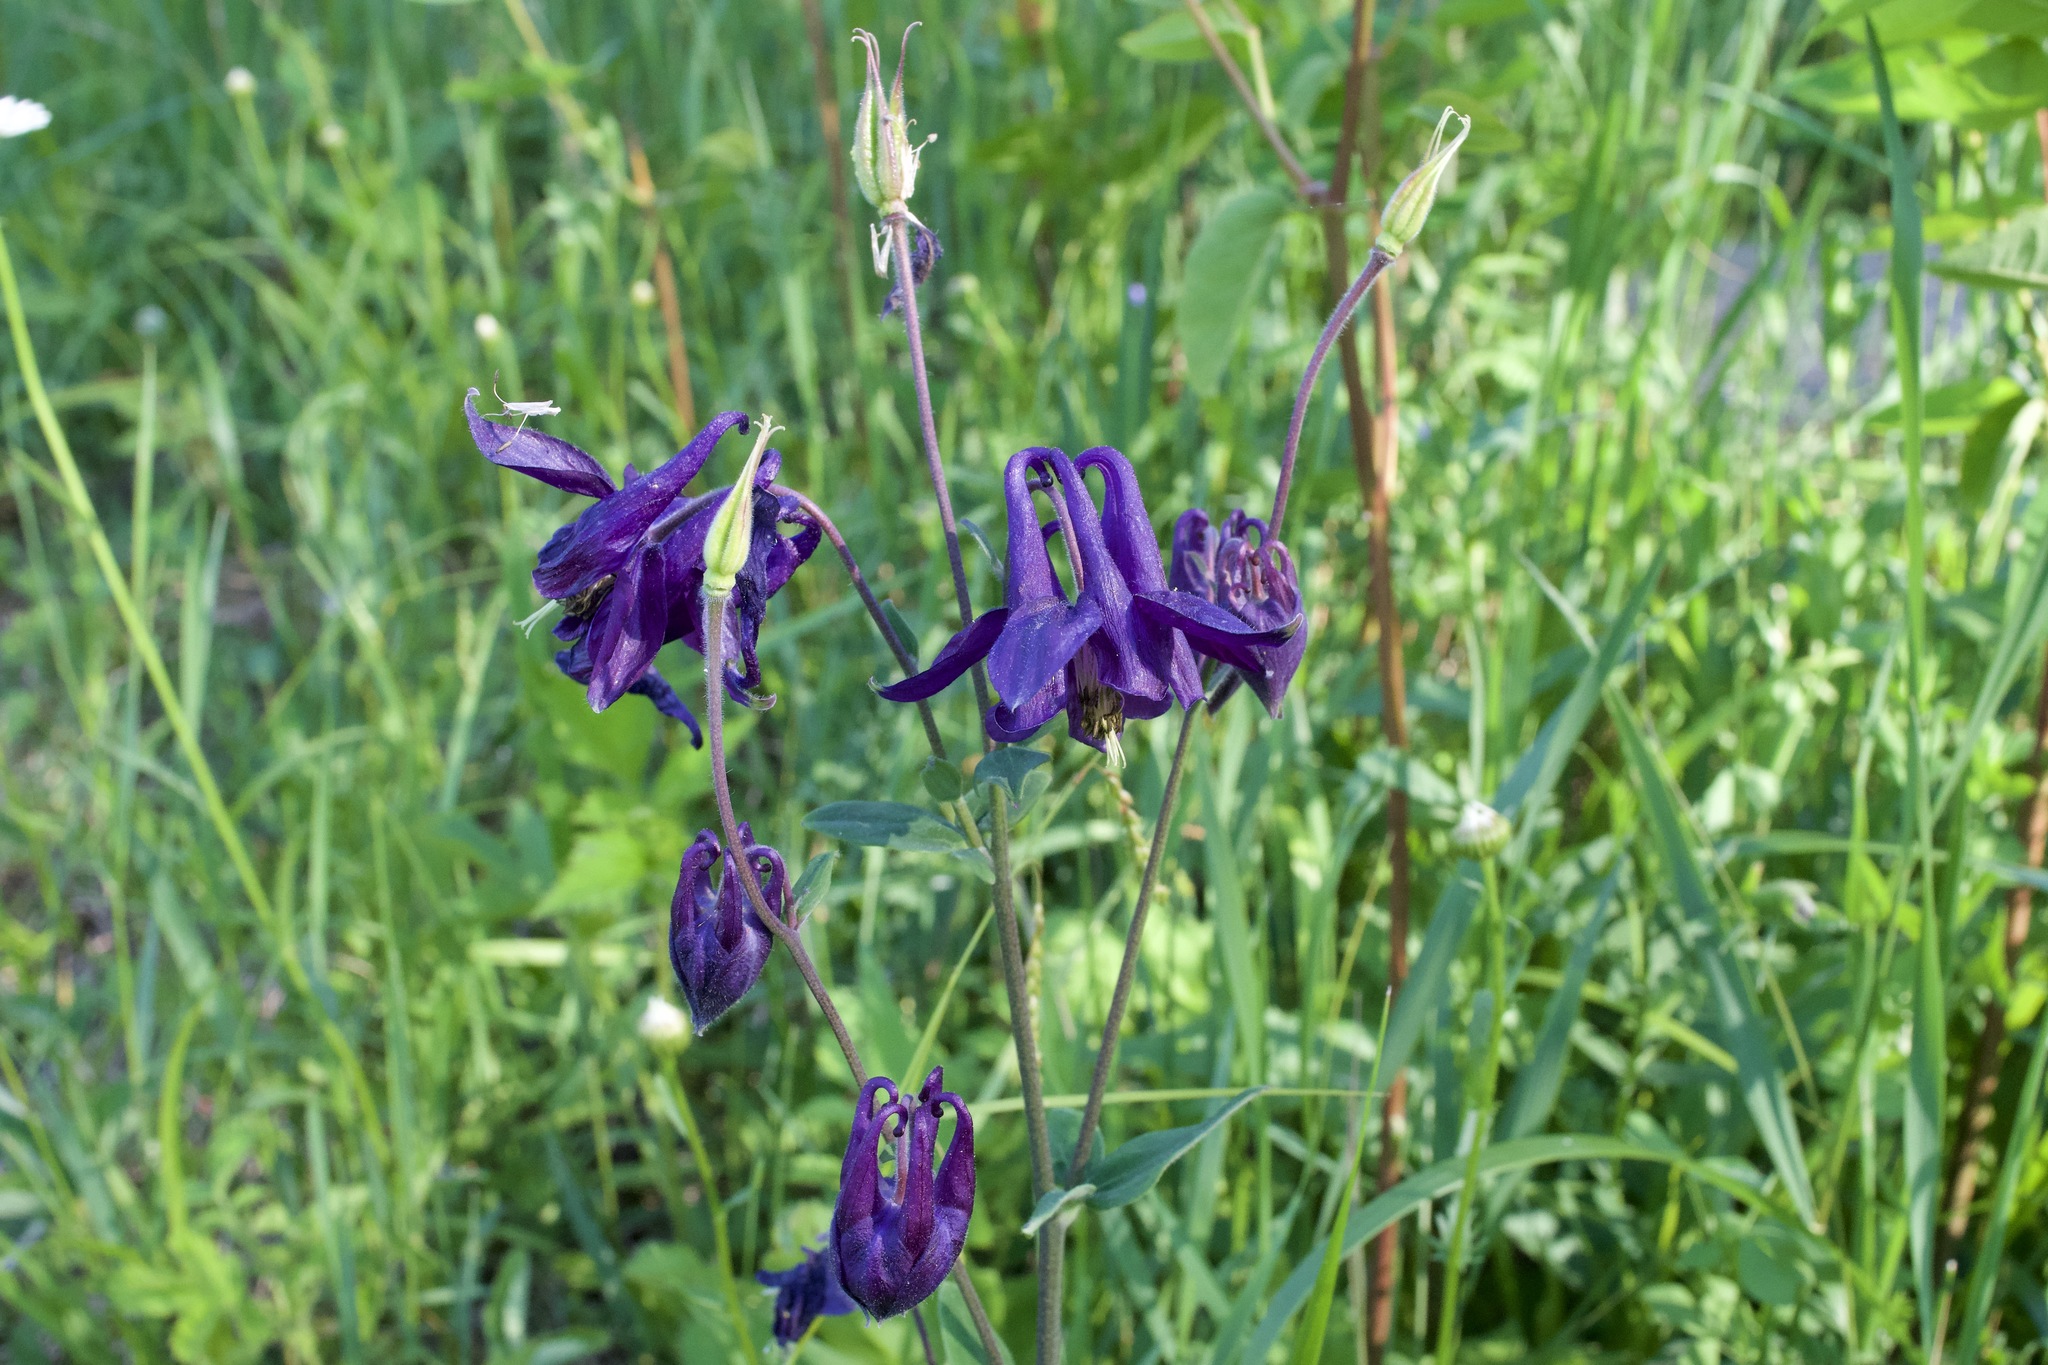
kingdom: Plantae
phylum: Tracheophyta
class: Magnoliopsida
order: Ranunculales
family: Ranunculaceae
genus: Aquilegia
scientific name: Aquilegia vulgaris
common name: Columbine
